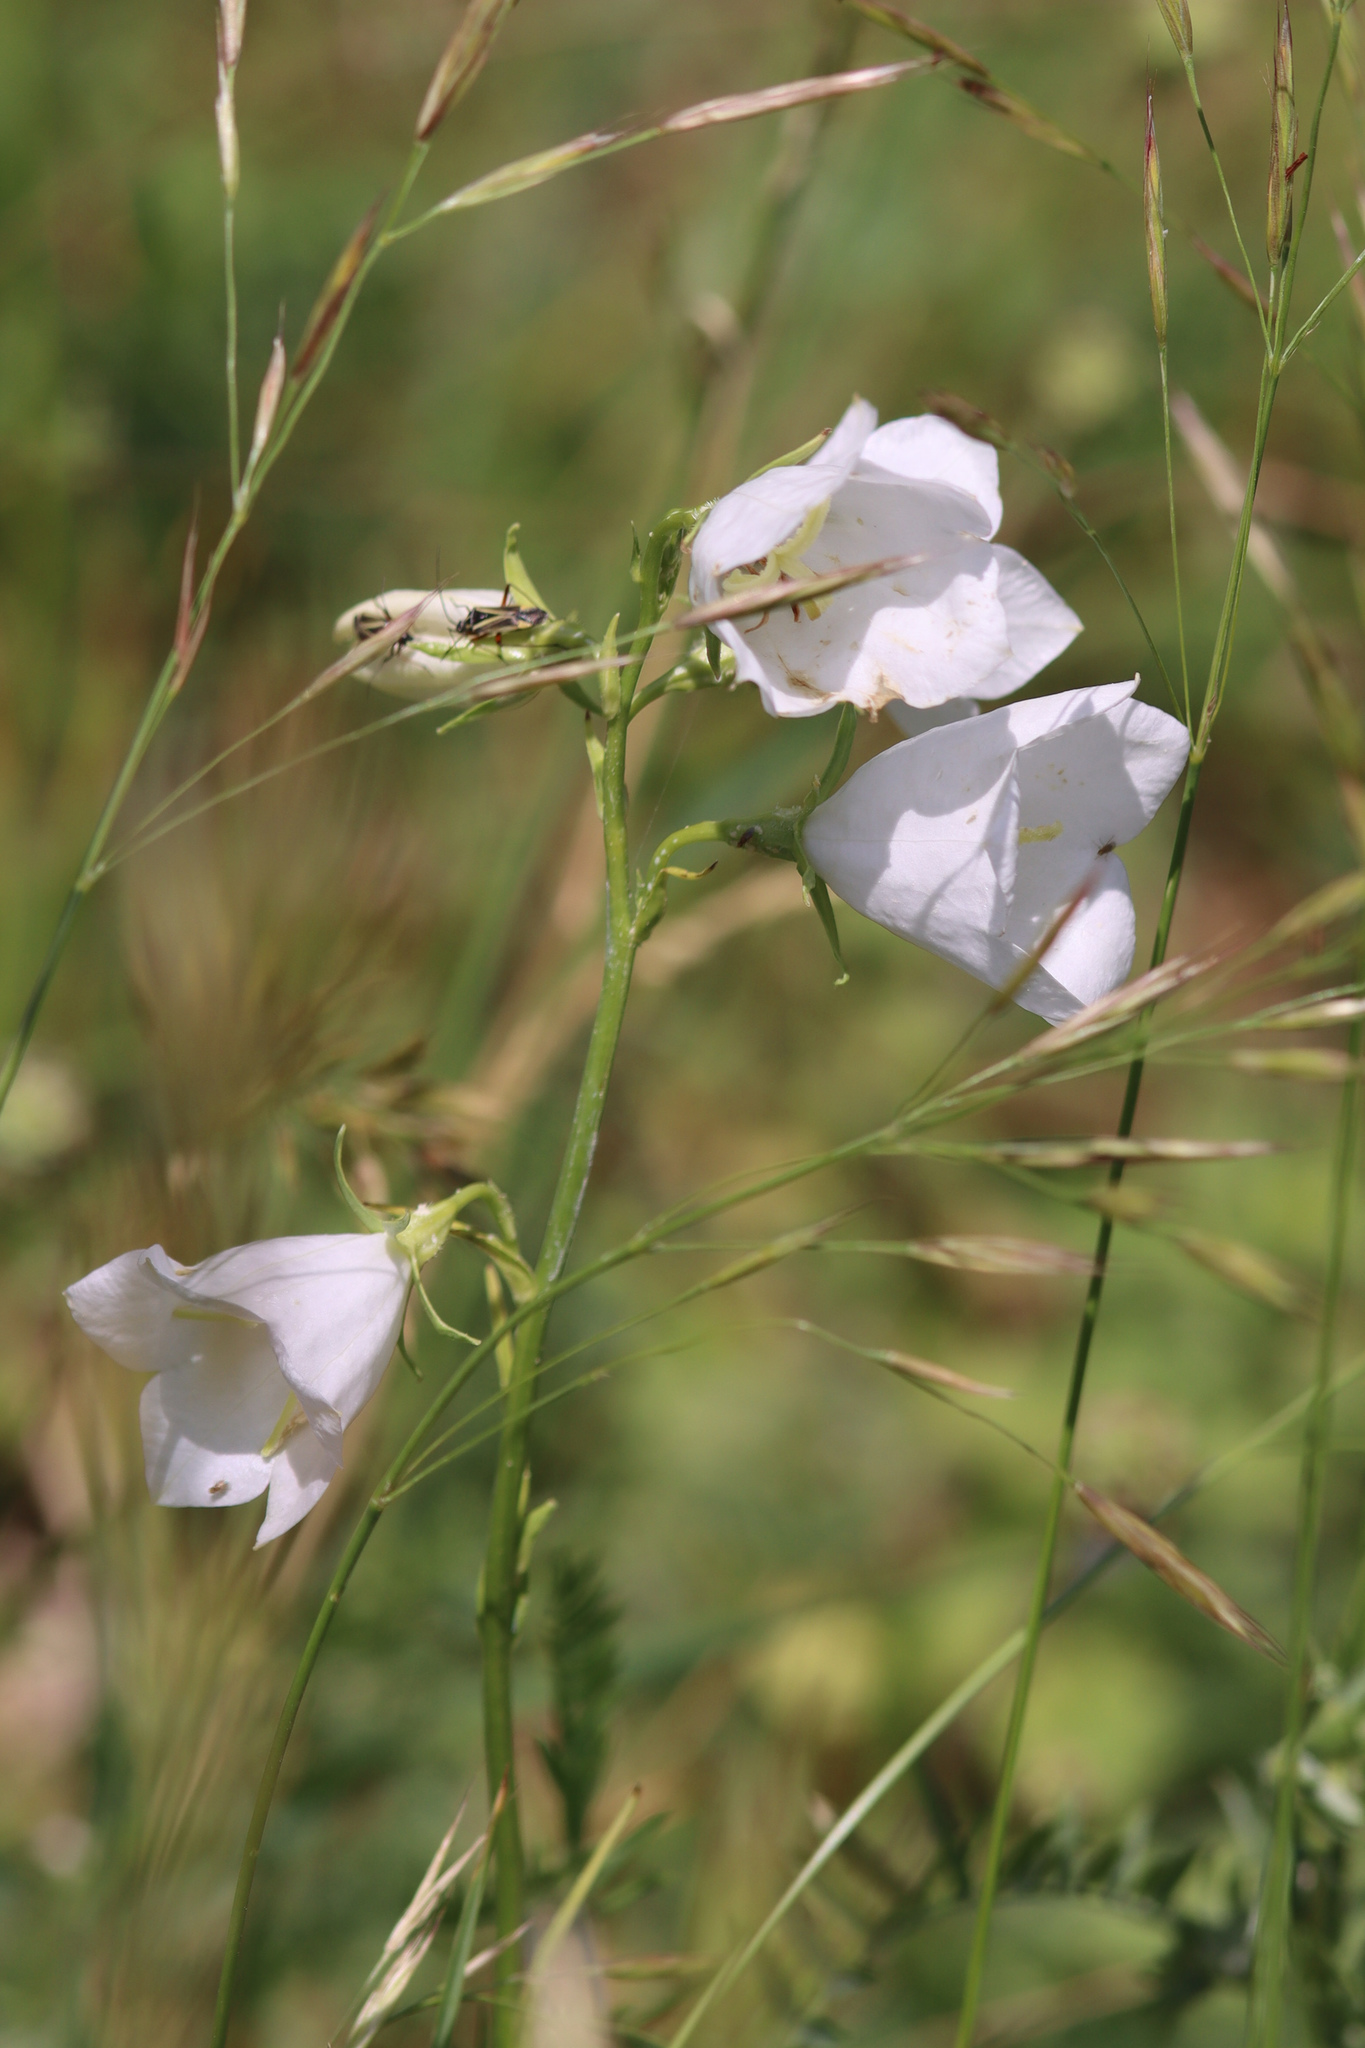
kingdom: Plantae
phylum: Tracheophyta
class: Magnoliopsida
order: Asterales
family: Campanulaceae
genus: Campanula
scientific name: Campanula persicifolia
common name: Peach-leaved bellflower
